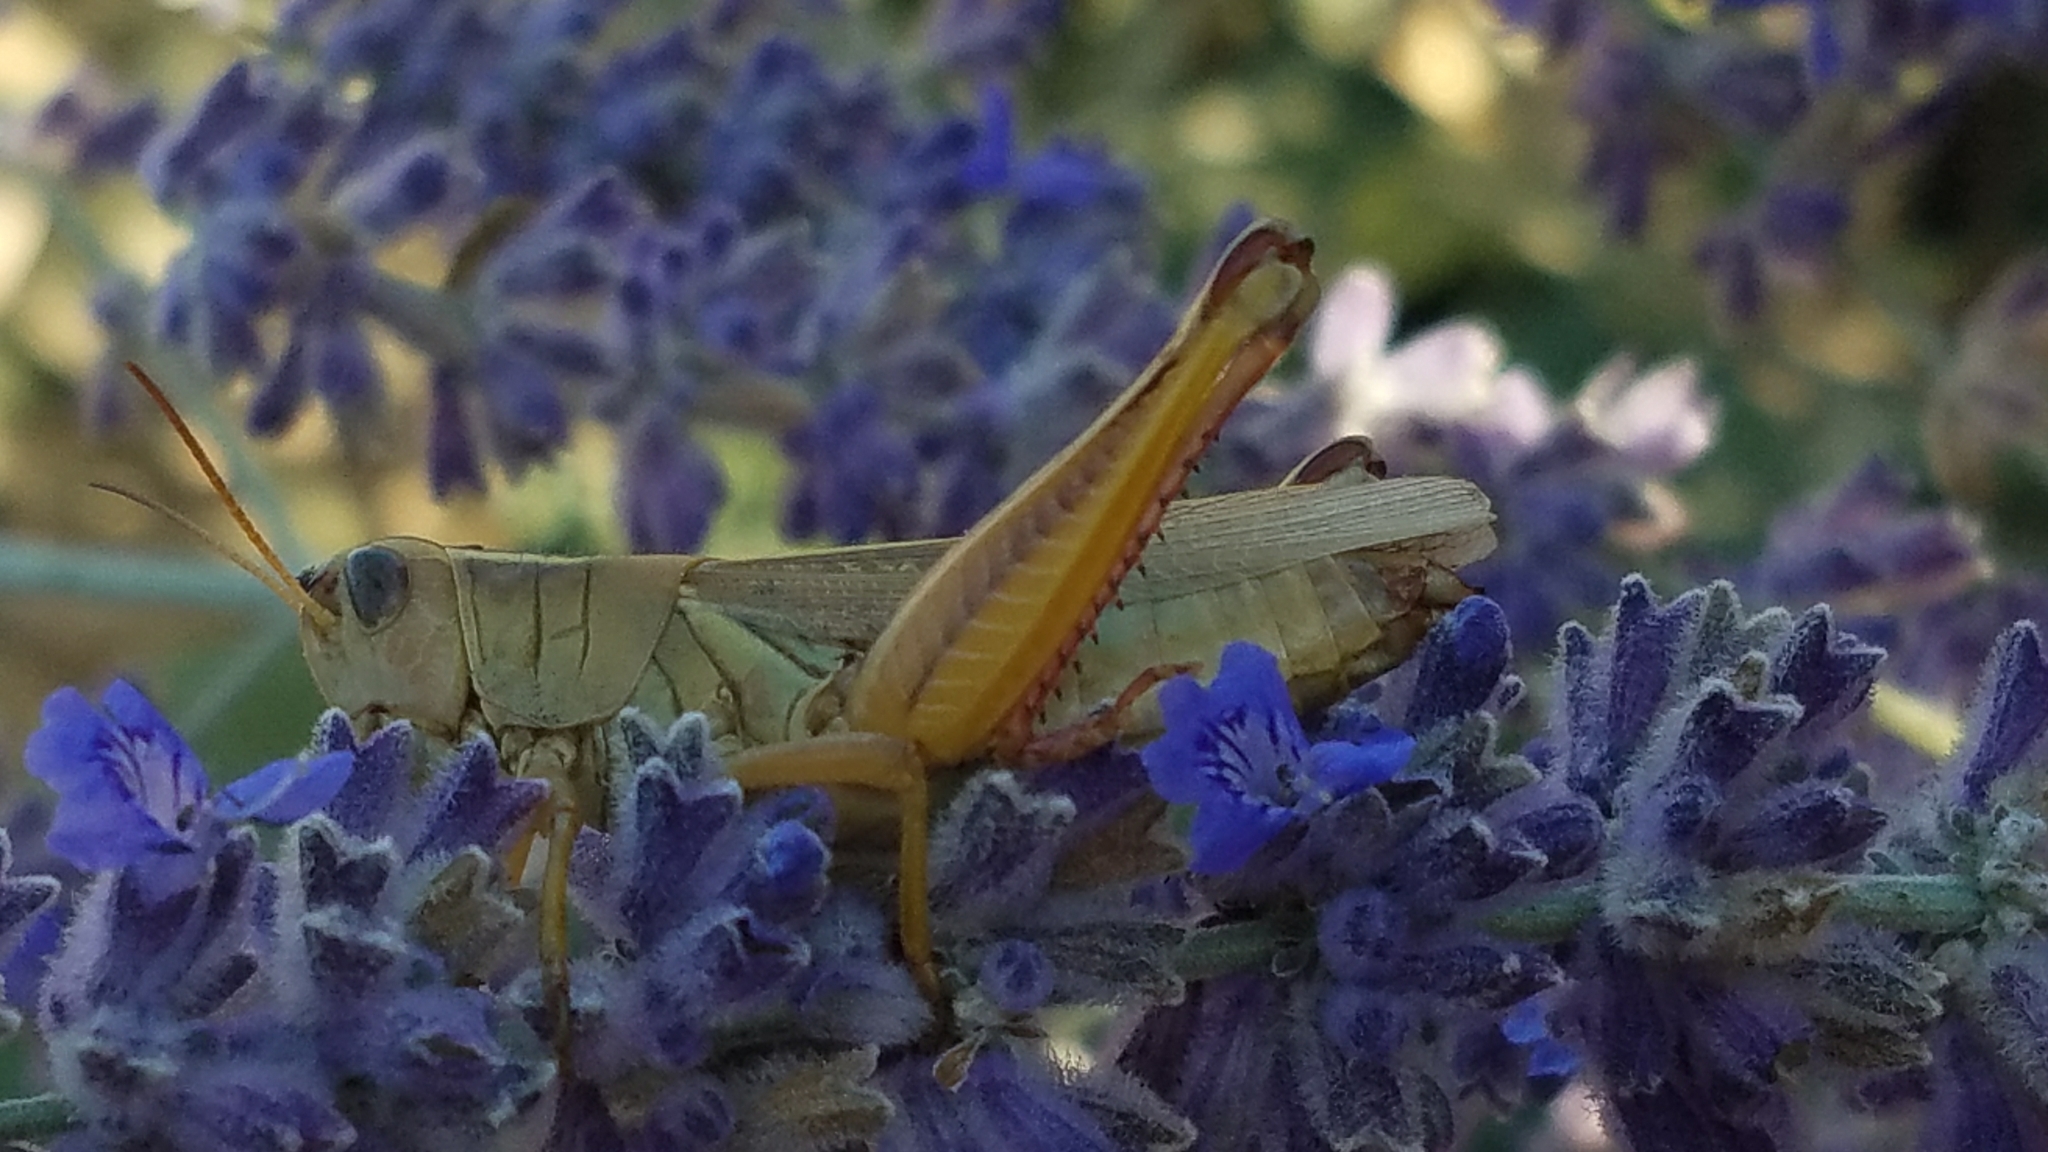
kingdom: Animalia
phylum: Arthropoda
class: Insecta
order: Orthoptera
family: Acrididae
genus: Melanoplus
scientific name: Melanoplus bivittatus
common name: Two-striped grasshopper
